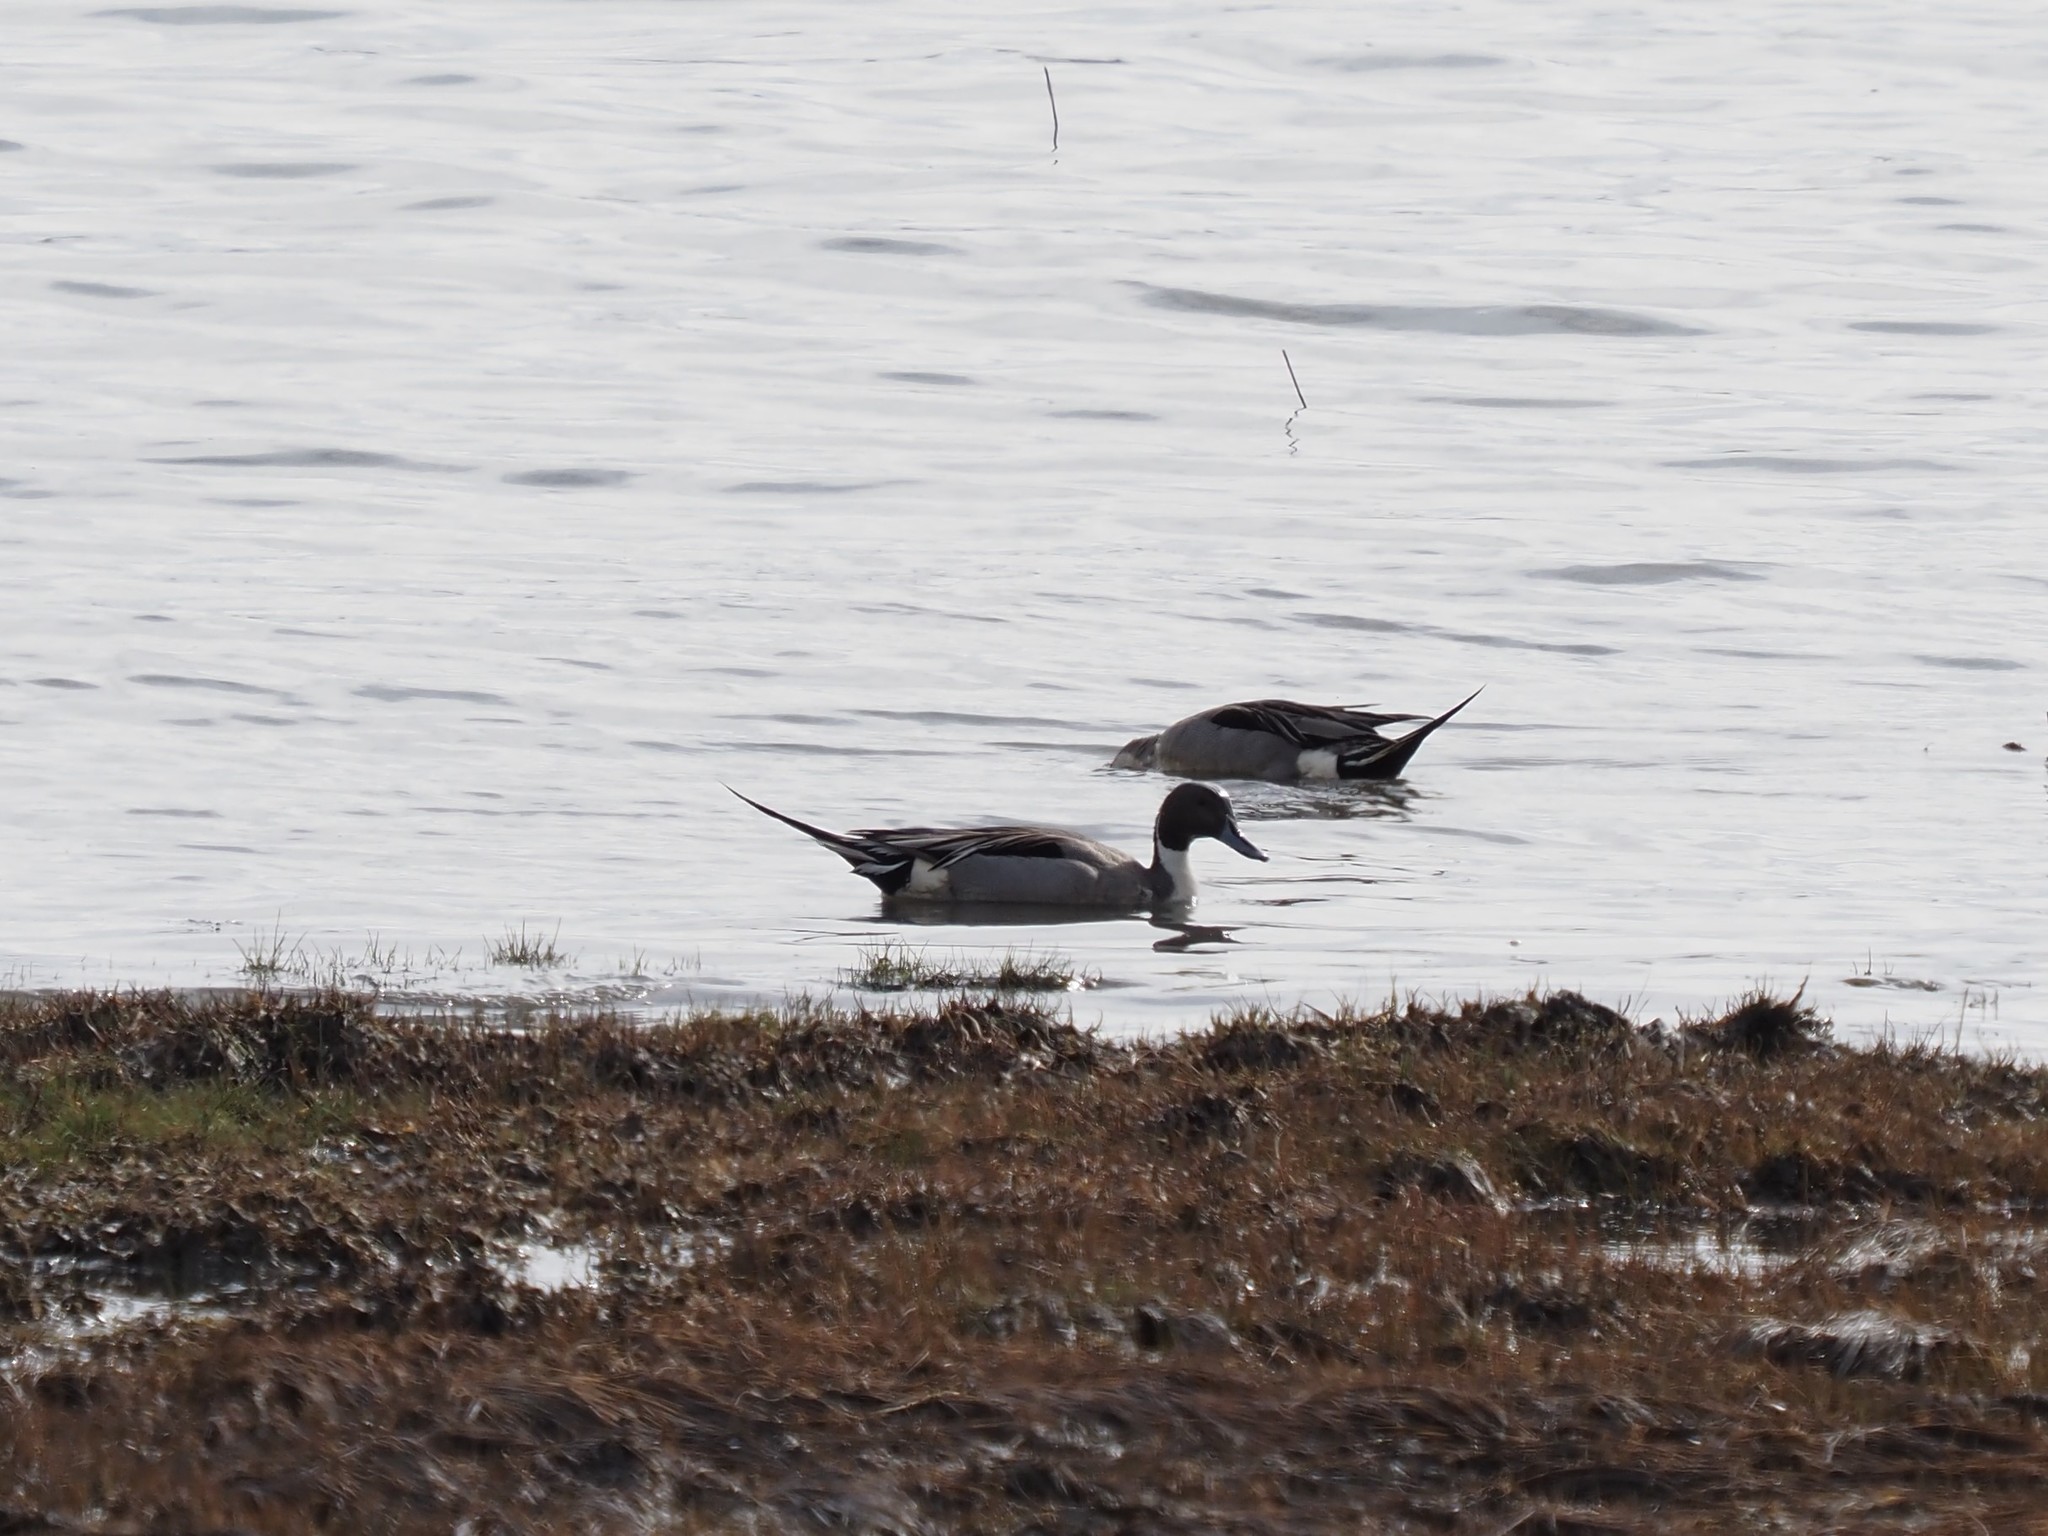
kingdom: Animalia
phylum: Chordata
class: Aves
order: Anseriformes
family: Anatidae
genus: Anas
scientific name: Anas acuta
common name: Northern pintail
